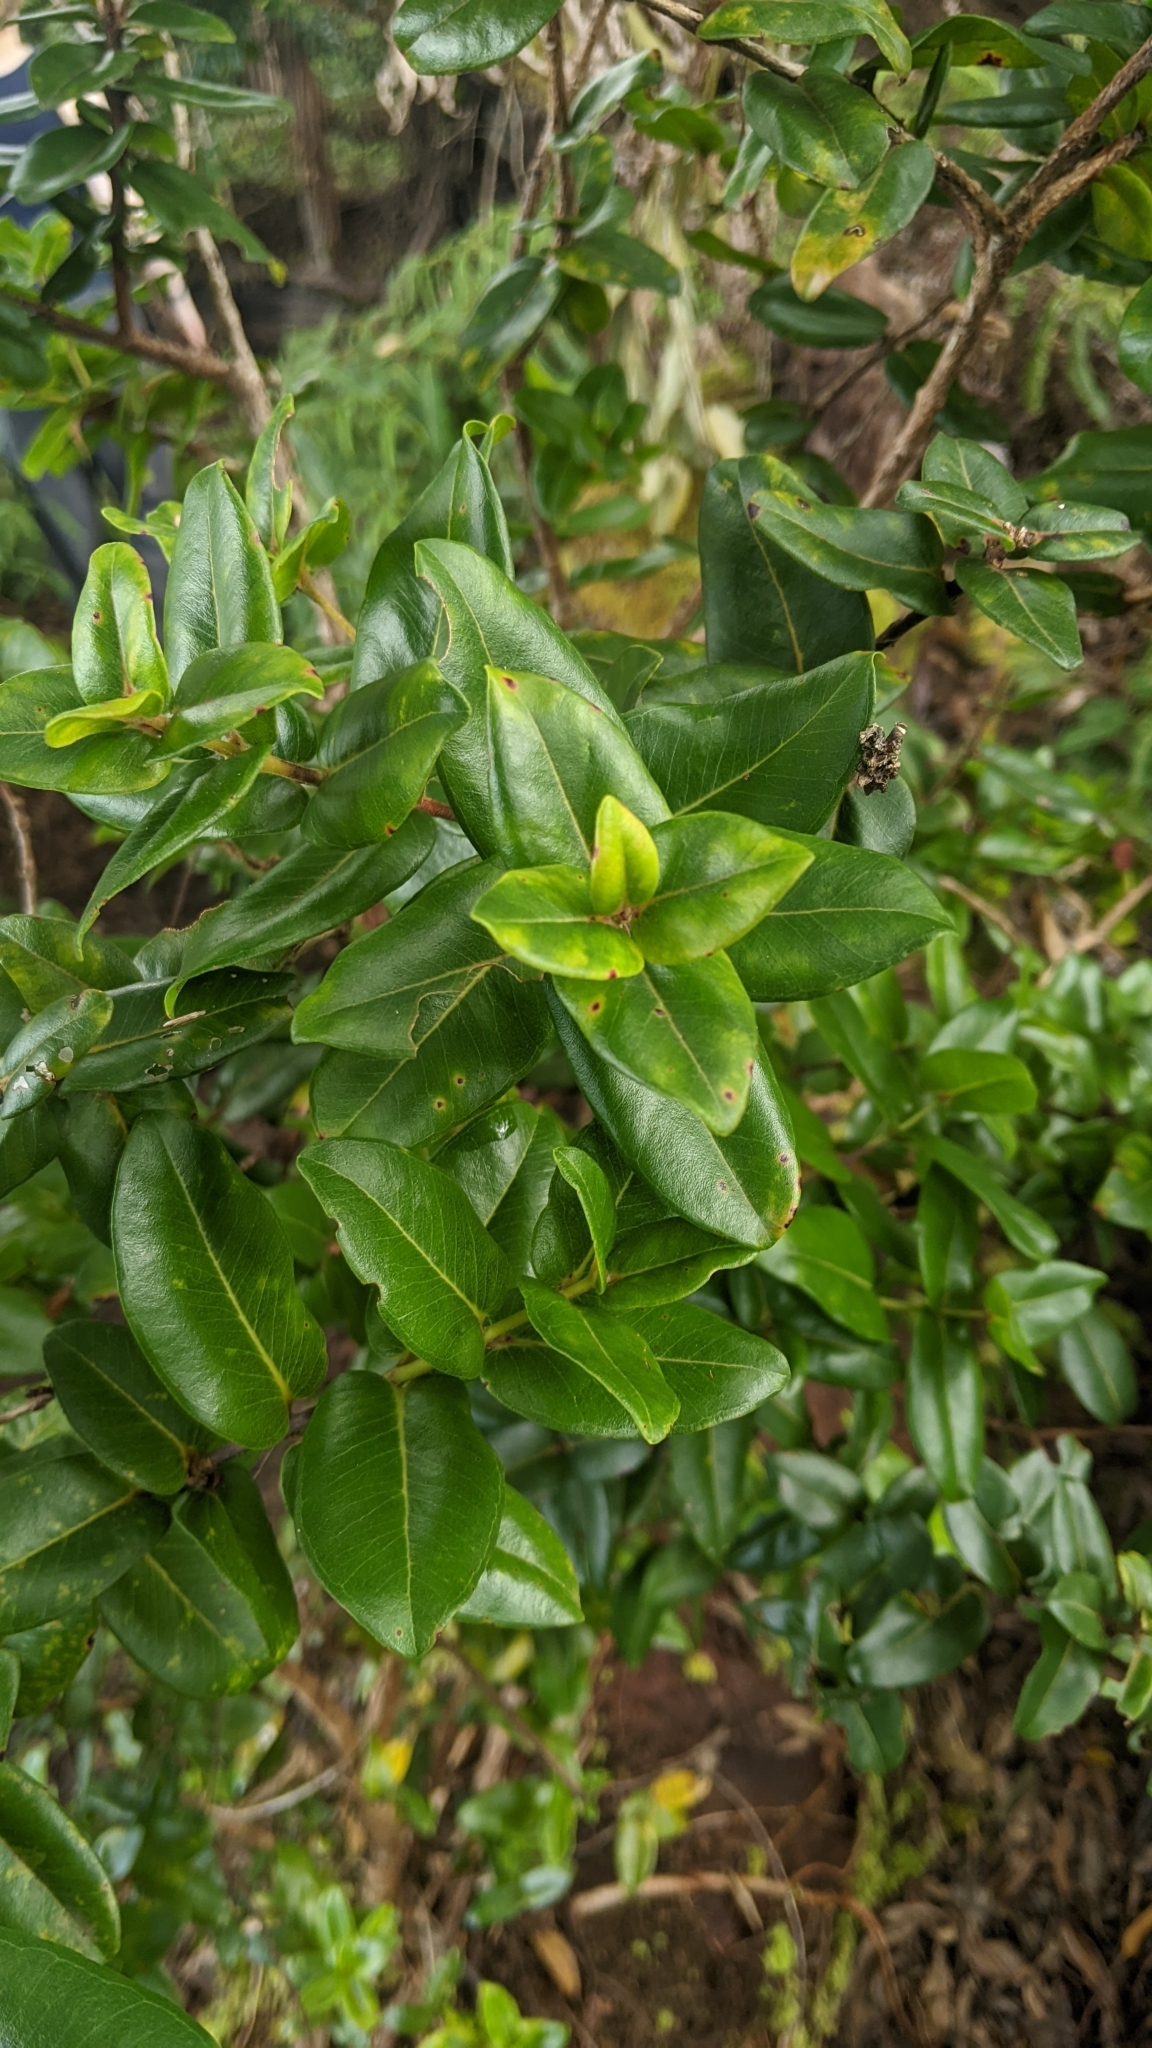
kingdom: Plantae
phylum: Tracheophyta
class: Magnoliopsida
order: Myrtales
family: Myrtaceae
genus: Metrosideros
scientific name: Metrosideros polymorpha
